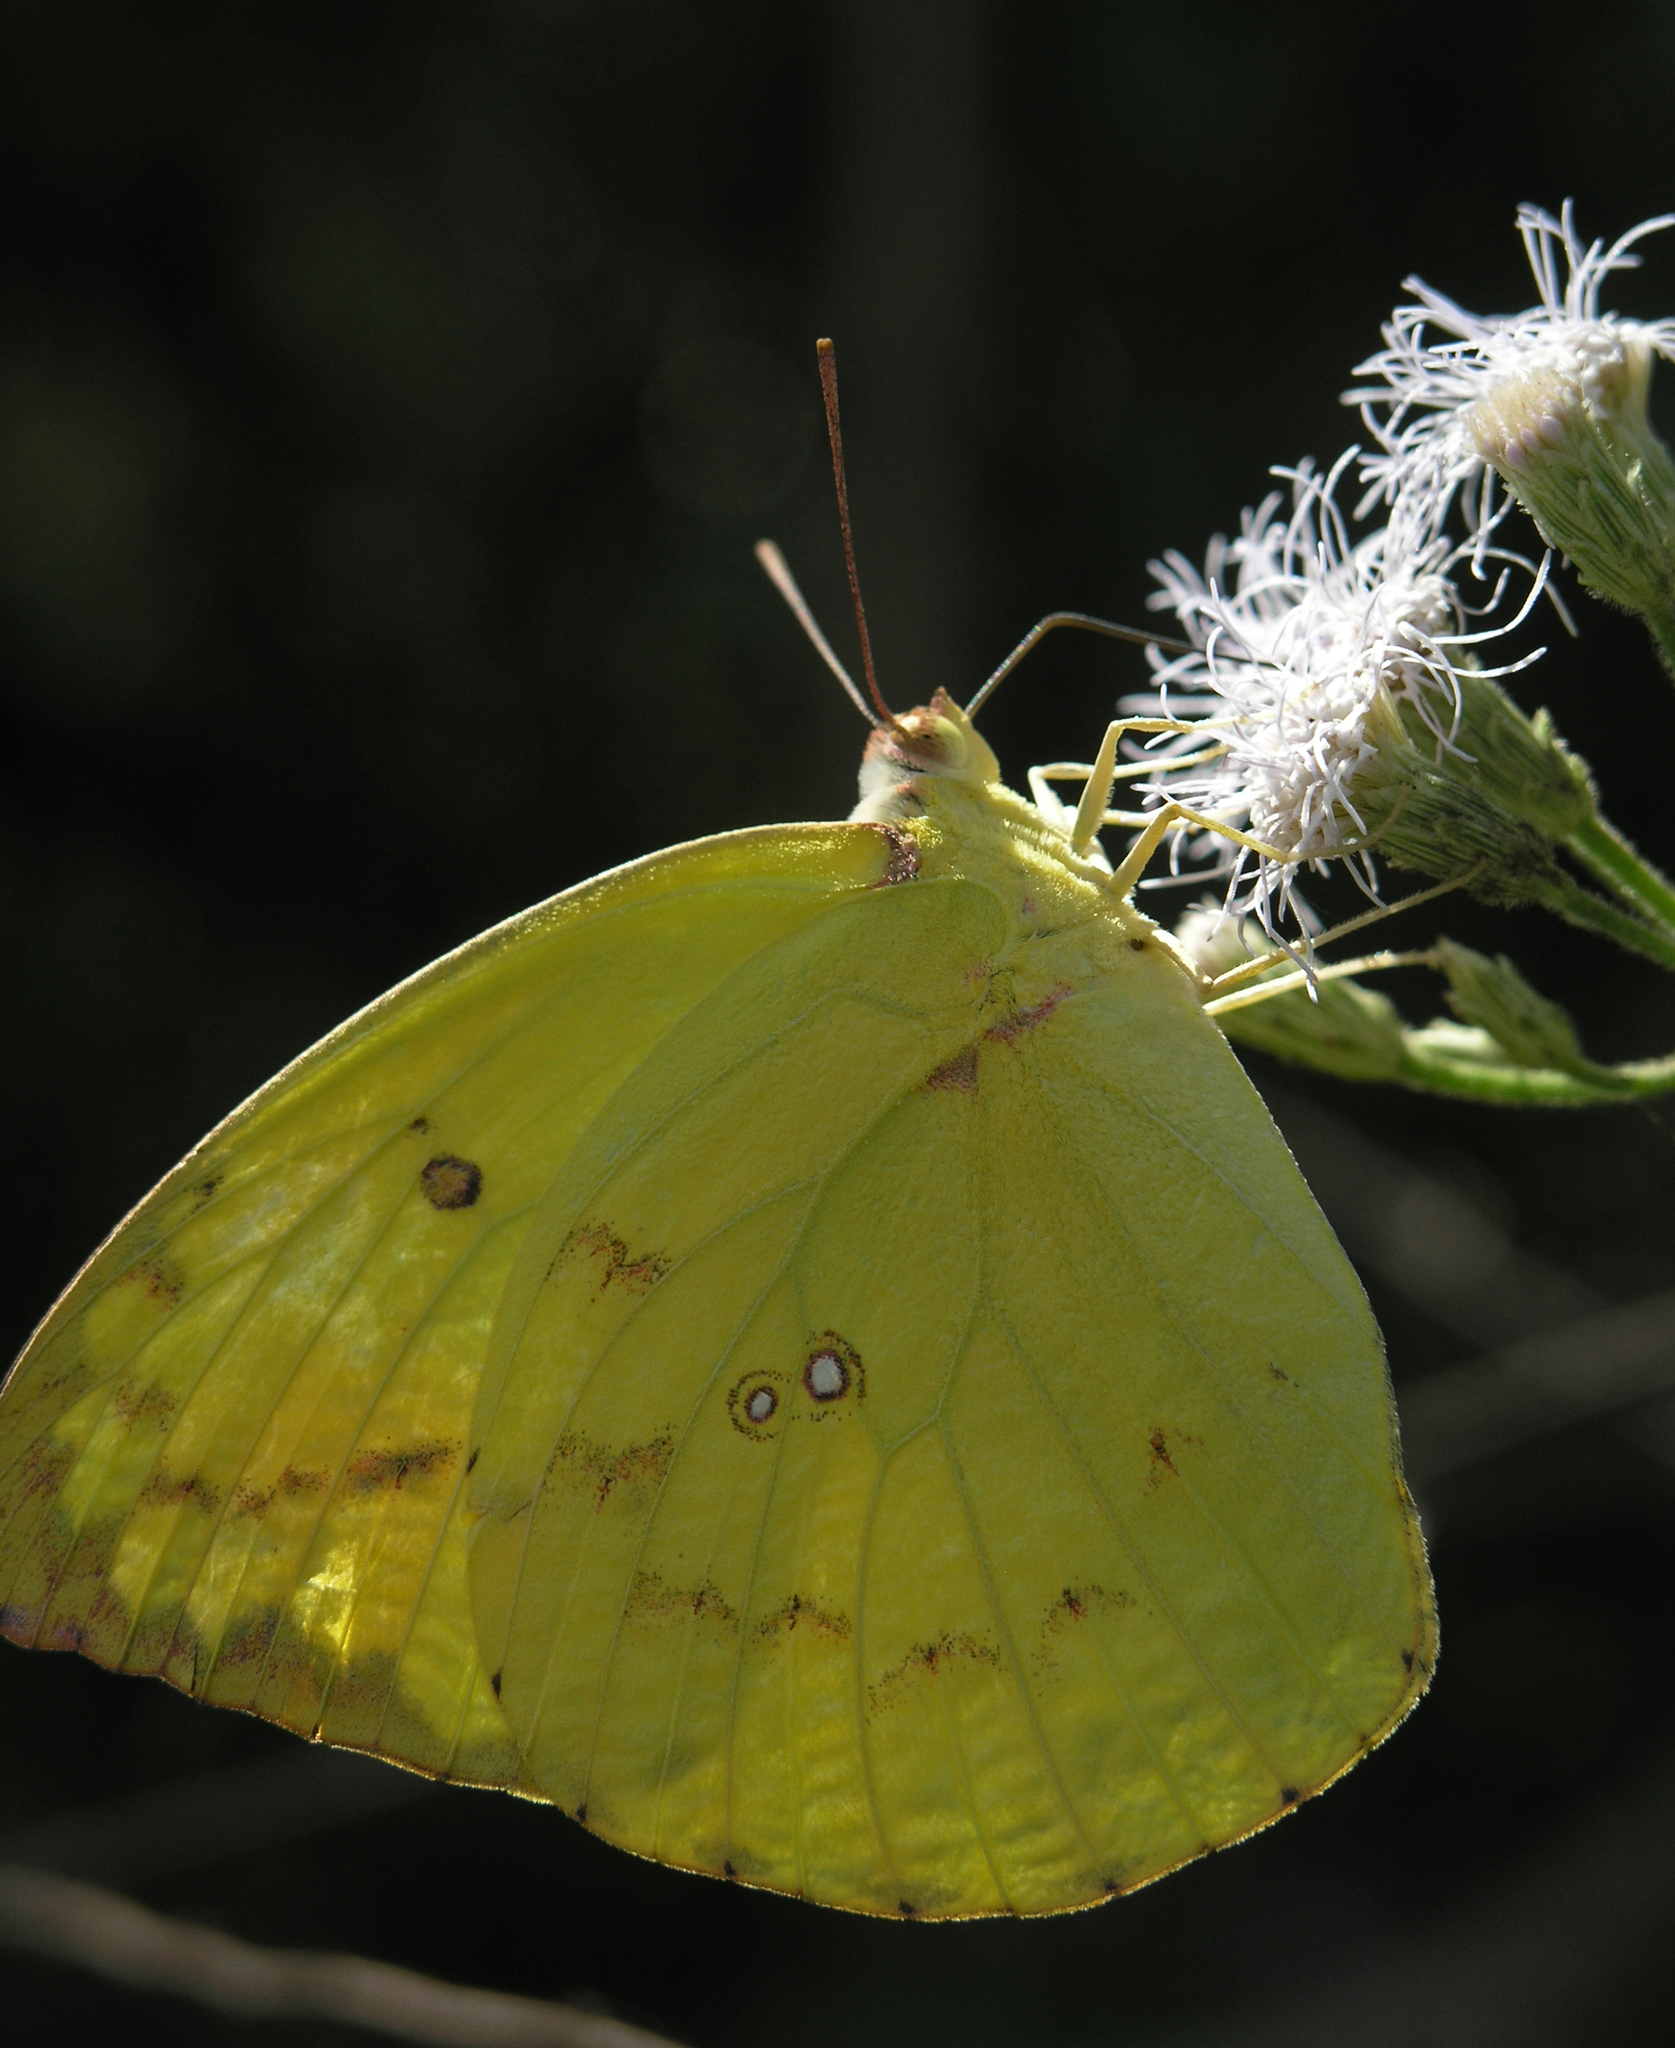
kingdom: Animalia
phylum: Arthropoda
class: Insecta
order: Lepidoptera
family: Pieridae
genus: Catopsilia
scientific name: Catopsilia pomona
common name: Common emigrant
